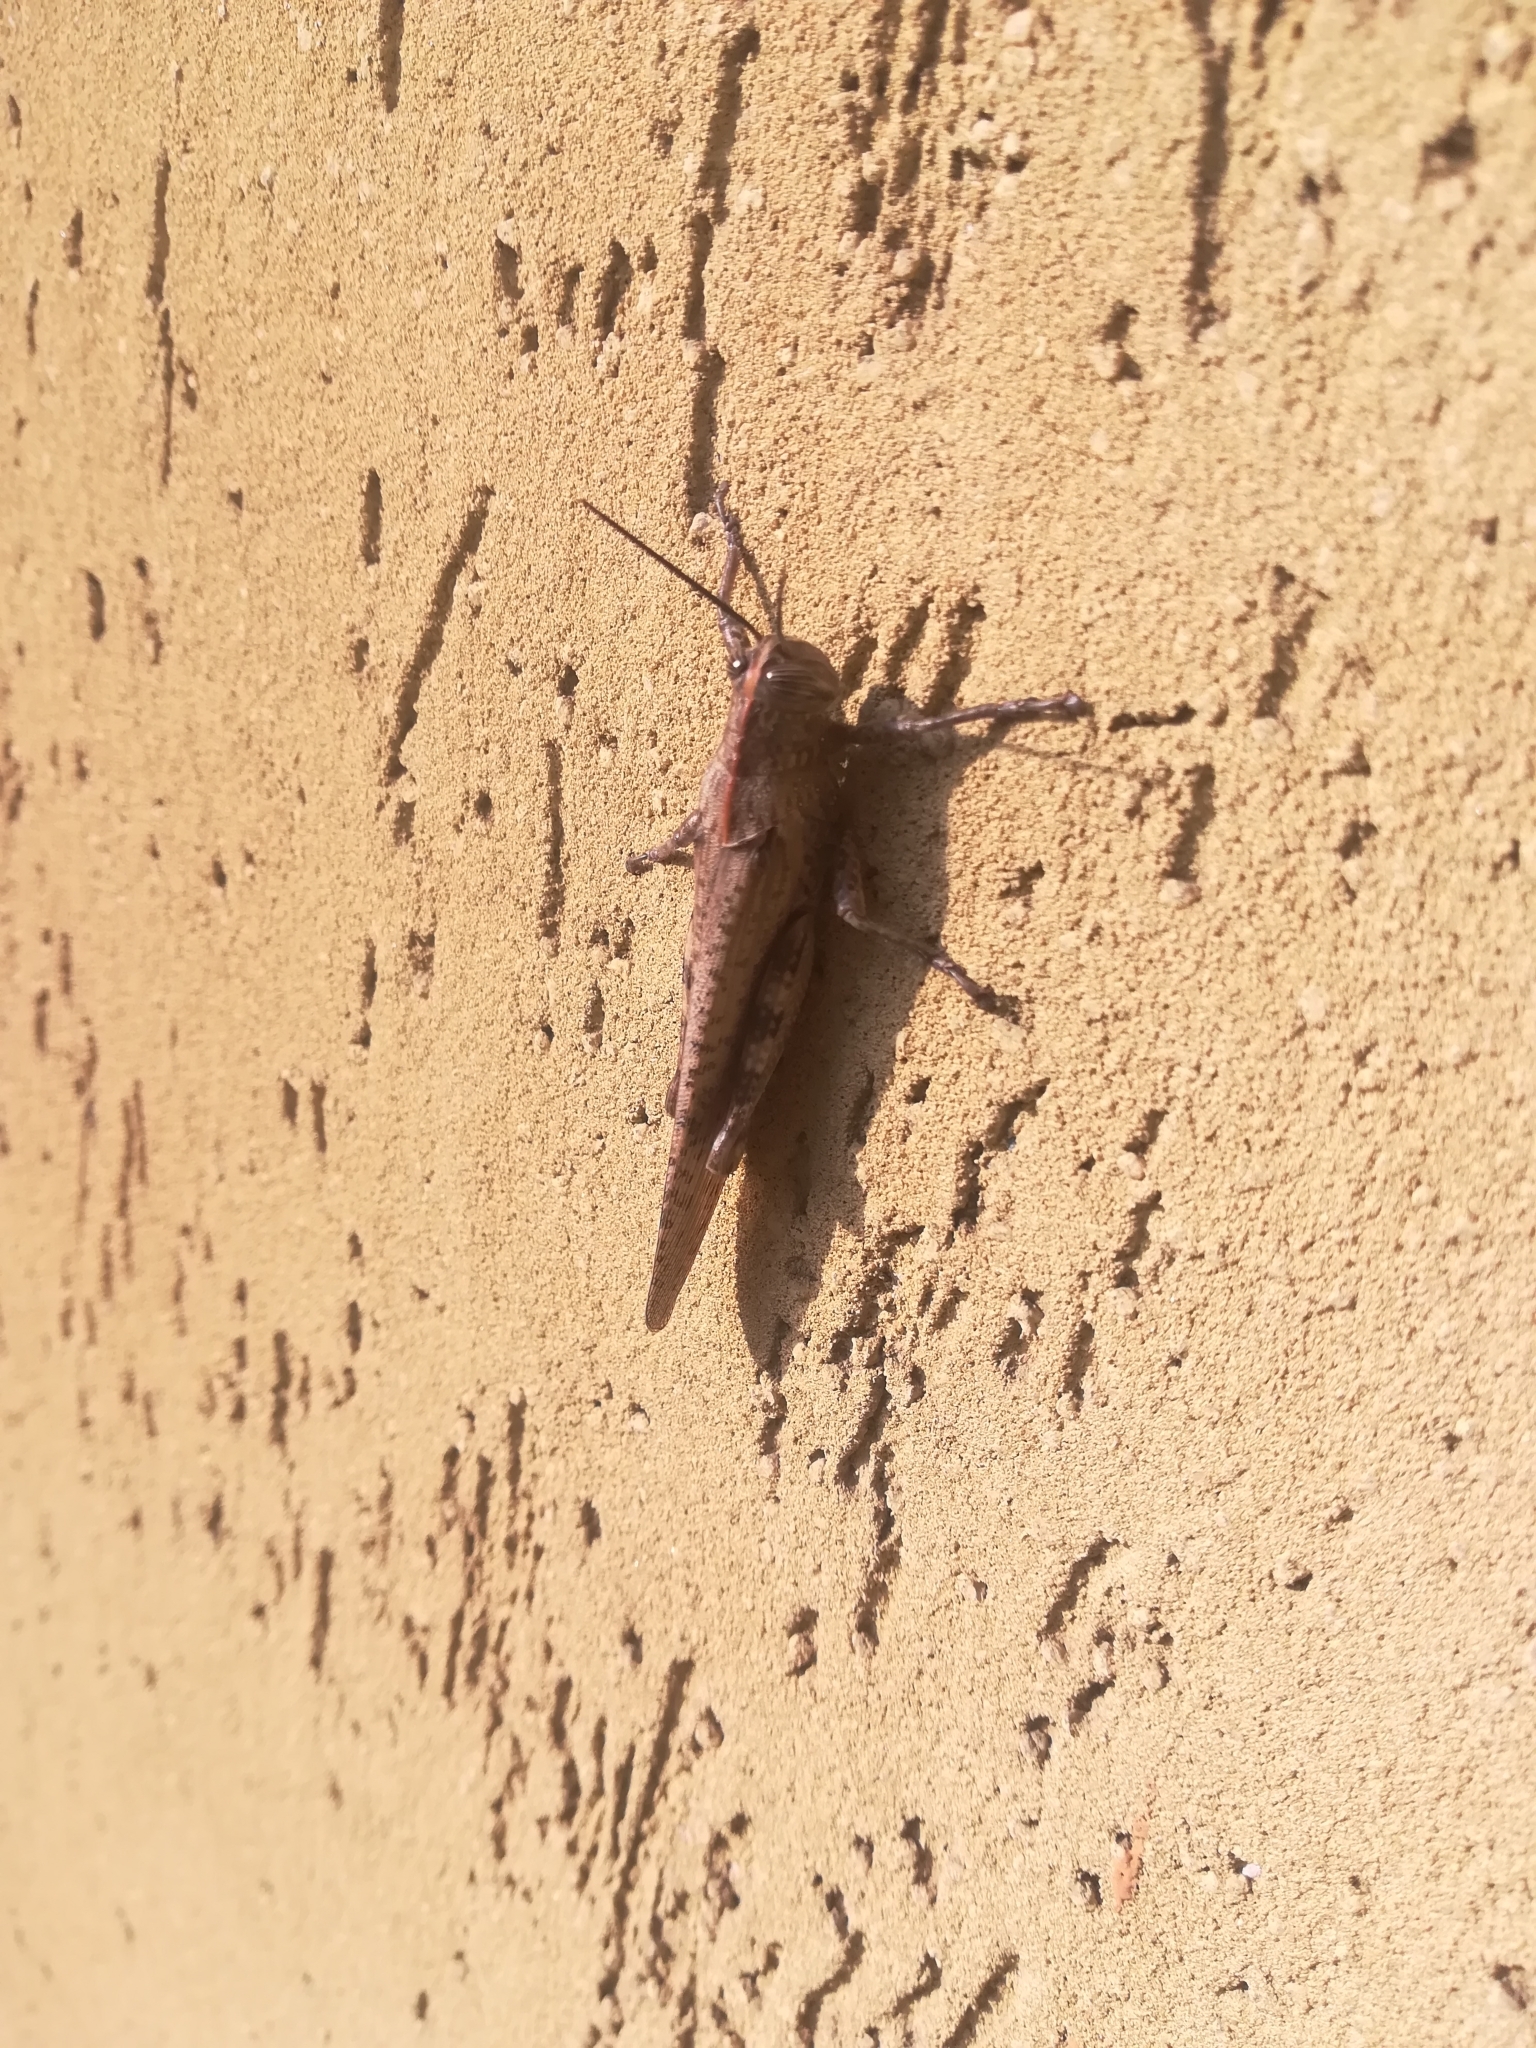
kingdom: Animalia
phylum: Arthropoda
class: Insecta
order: Orthoptera
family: Acrididae
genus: Anacridium
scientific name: Anacridium aegyptium
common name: Egyptian grasshopper
